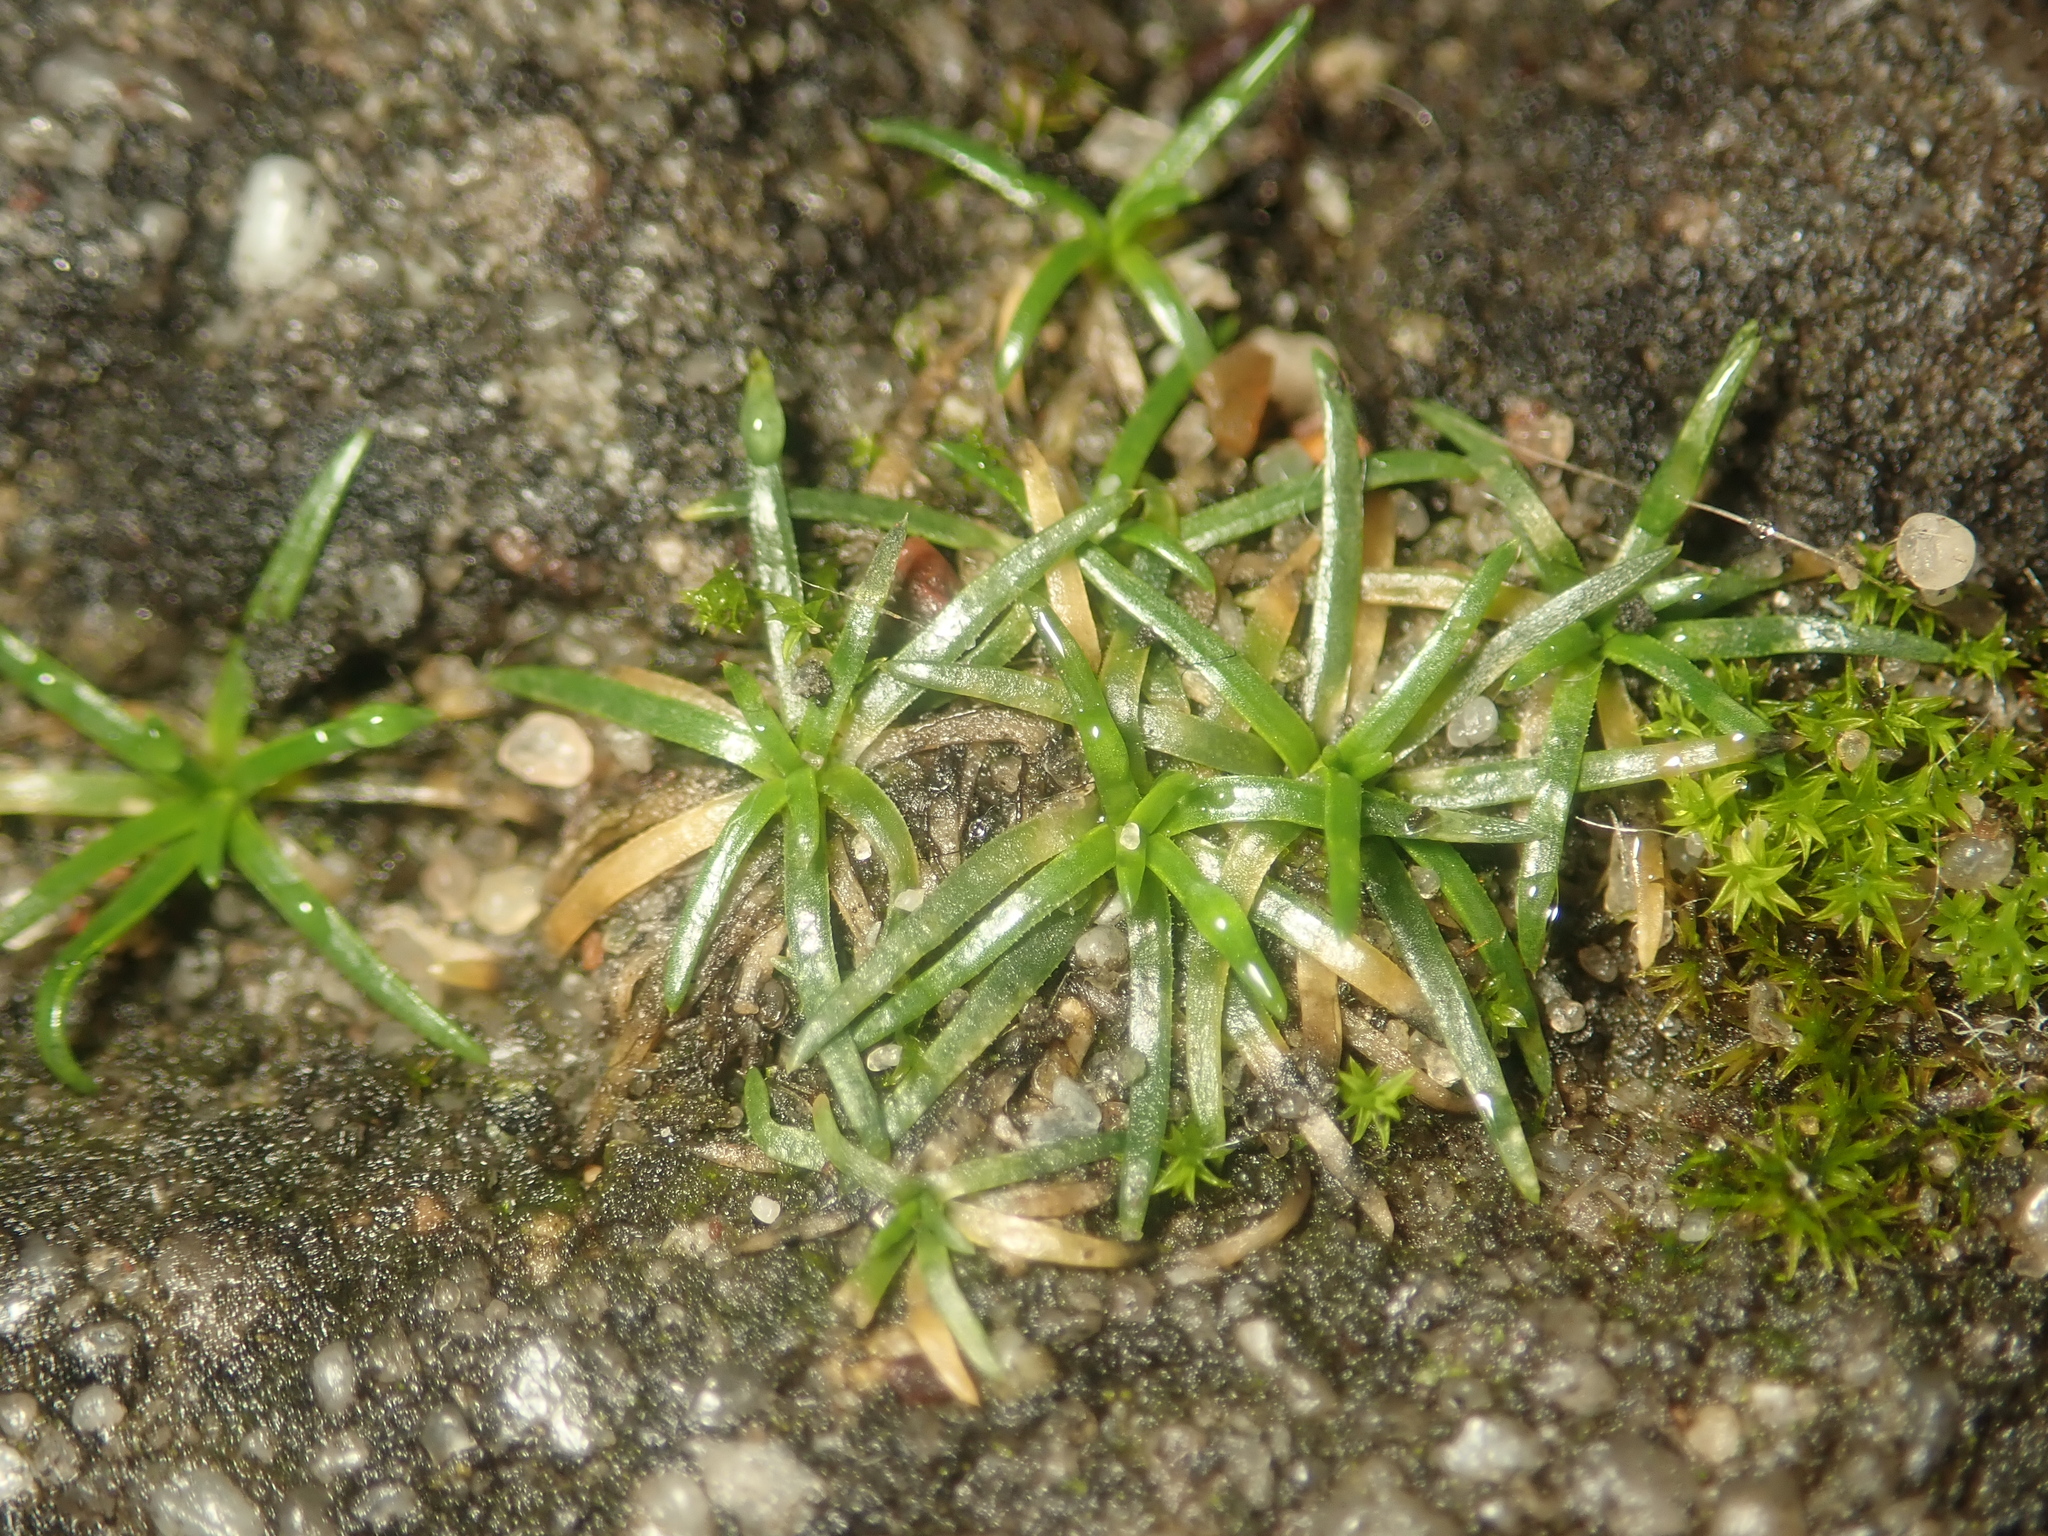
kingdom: Plantae
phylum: Tracheophyta
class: Magnoliopsida
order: Caryophyllales
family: Caryophyllaceae
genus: Sagina
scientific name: Sagina procumbens
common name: Procumbent pearlwort
